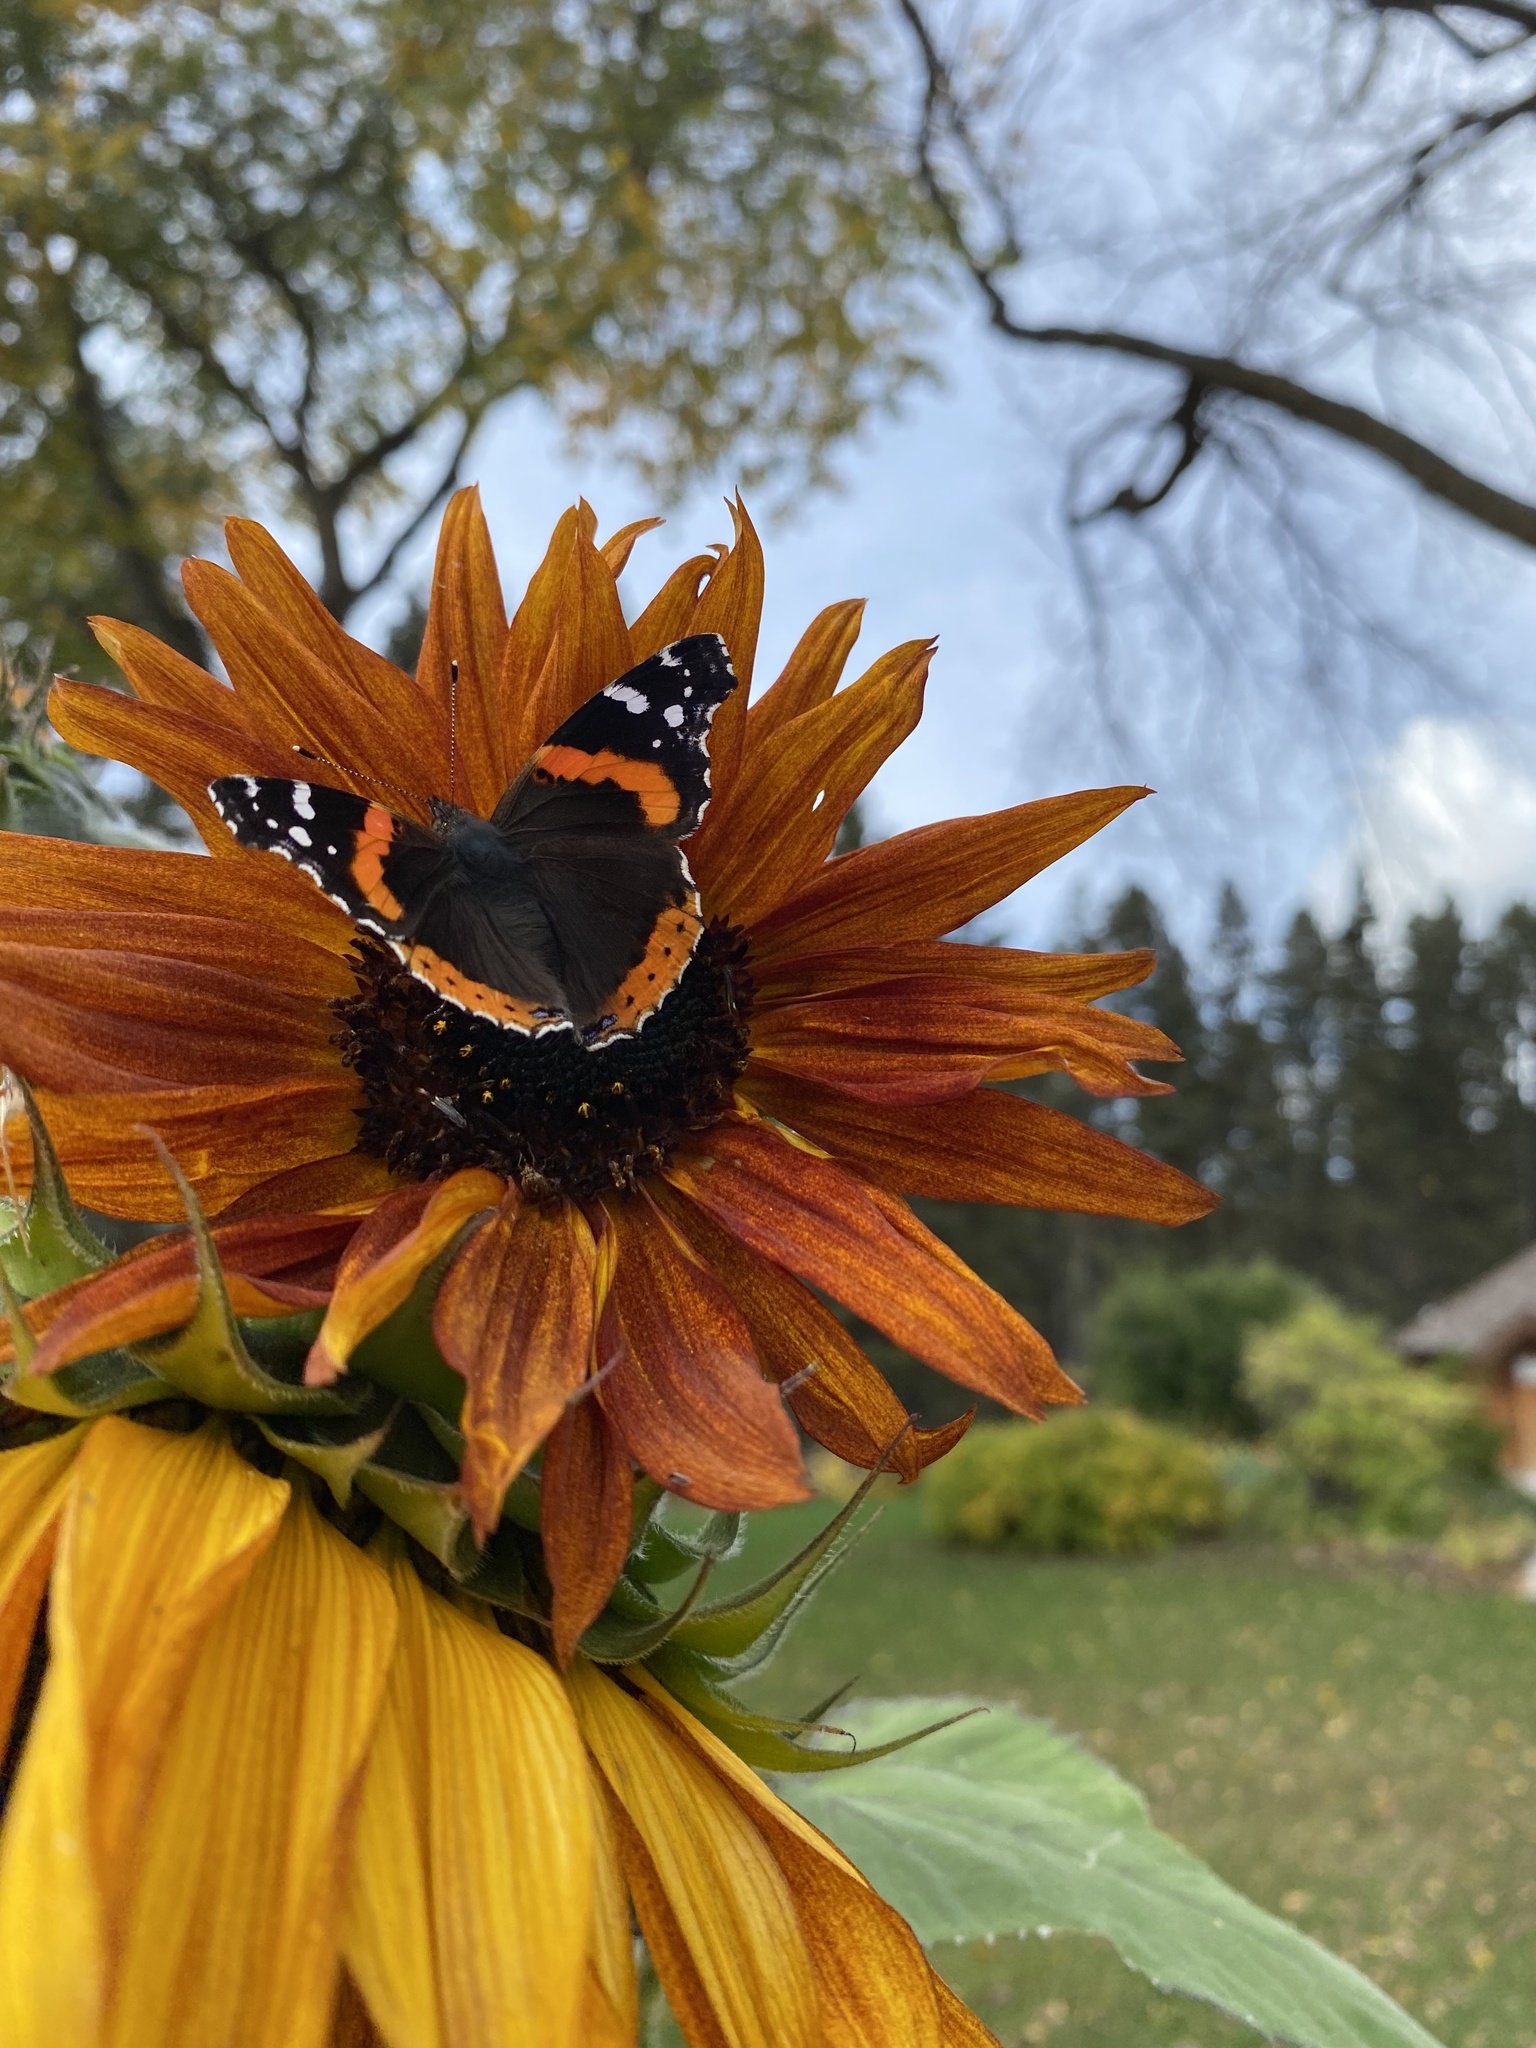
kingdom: Animalia
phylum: Arthropoda
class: Insecta
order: Lepidoptera
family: Nymphalidae
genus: Vanessa
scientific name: Vanessa atalanta
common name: Red admiral
